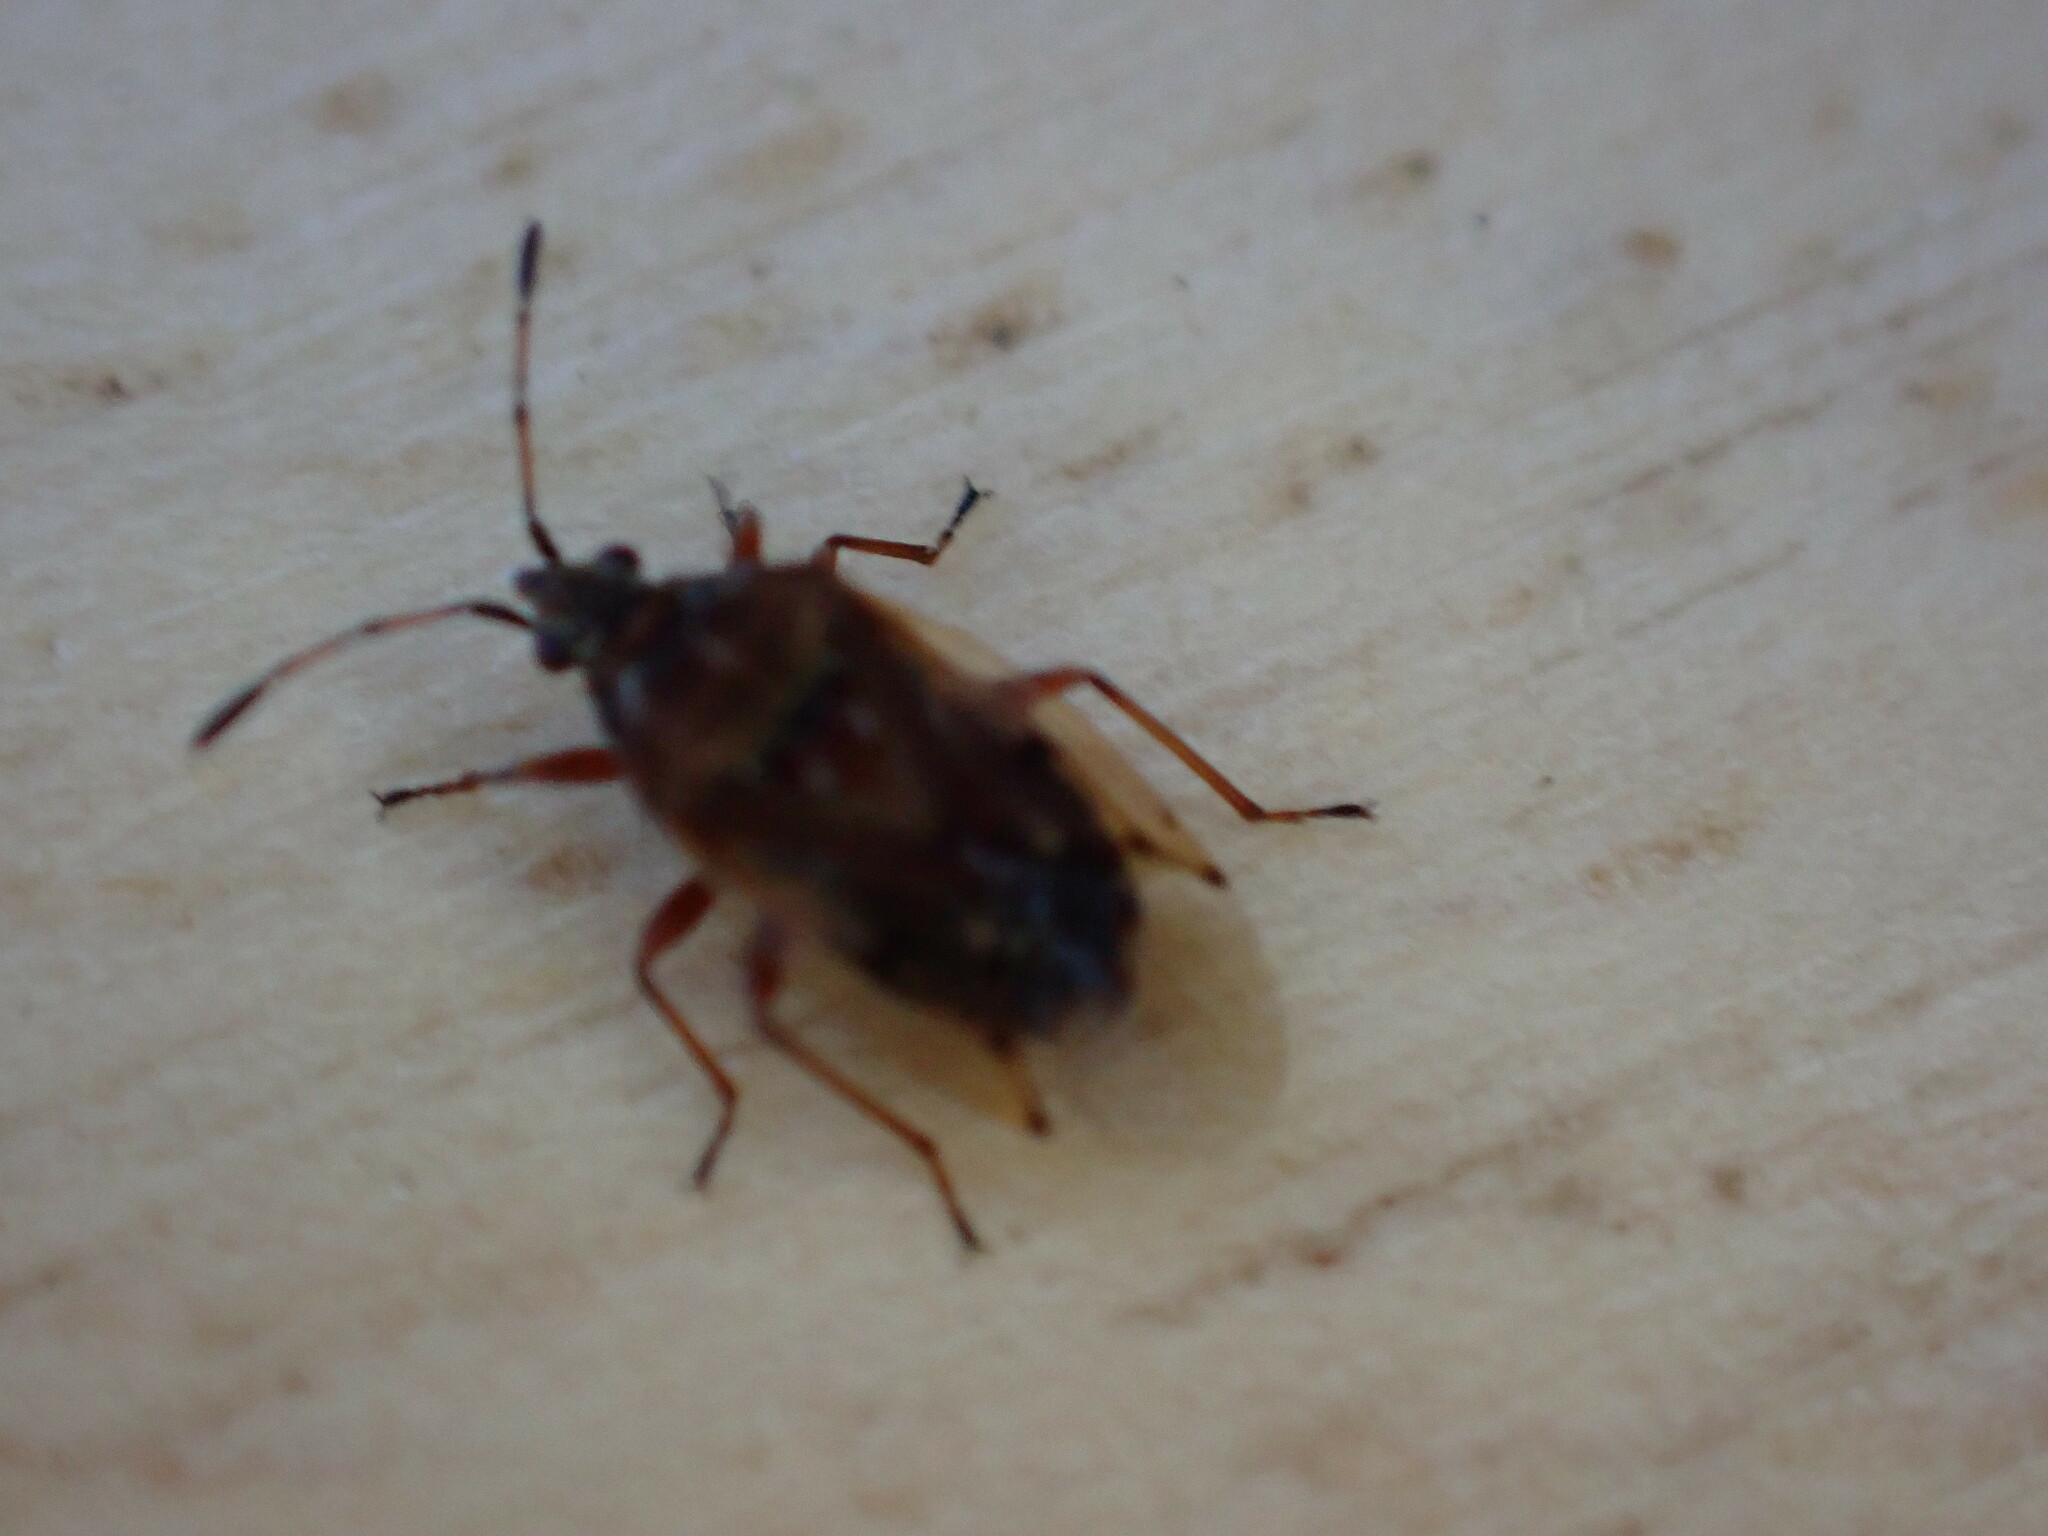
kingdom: Animalia
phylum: Arthropoda
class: Insecta
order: Hemiptera
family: Lygaeidae
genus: Kleidocerys
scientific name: Kleidocerys resedae
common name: Birch catkin bug
